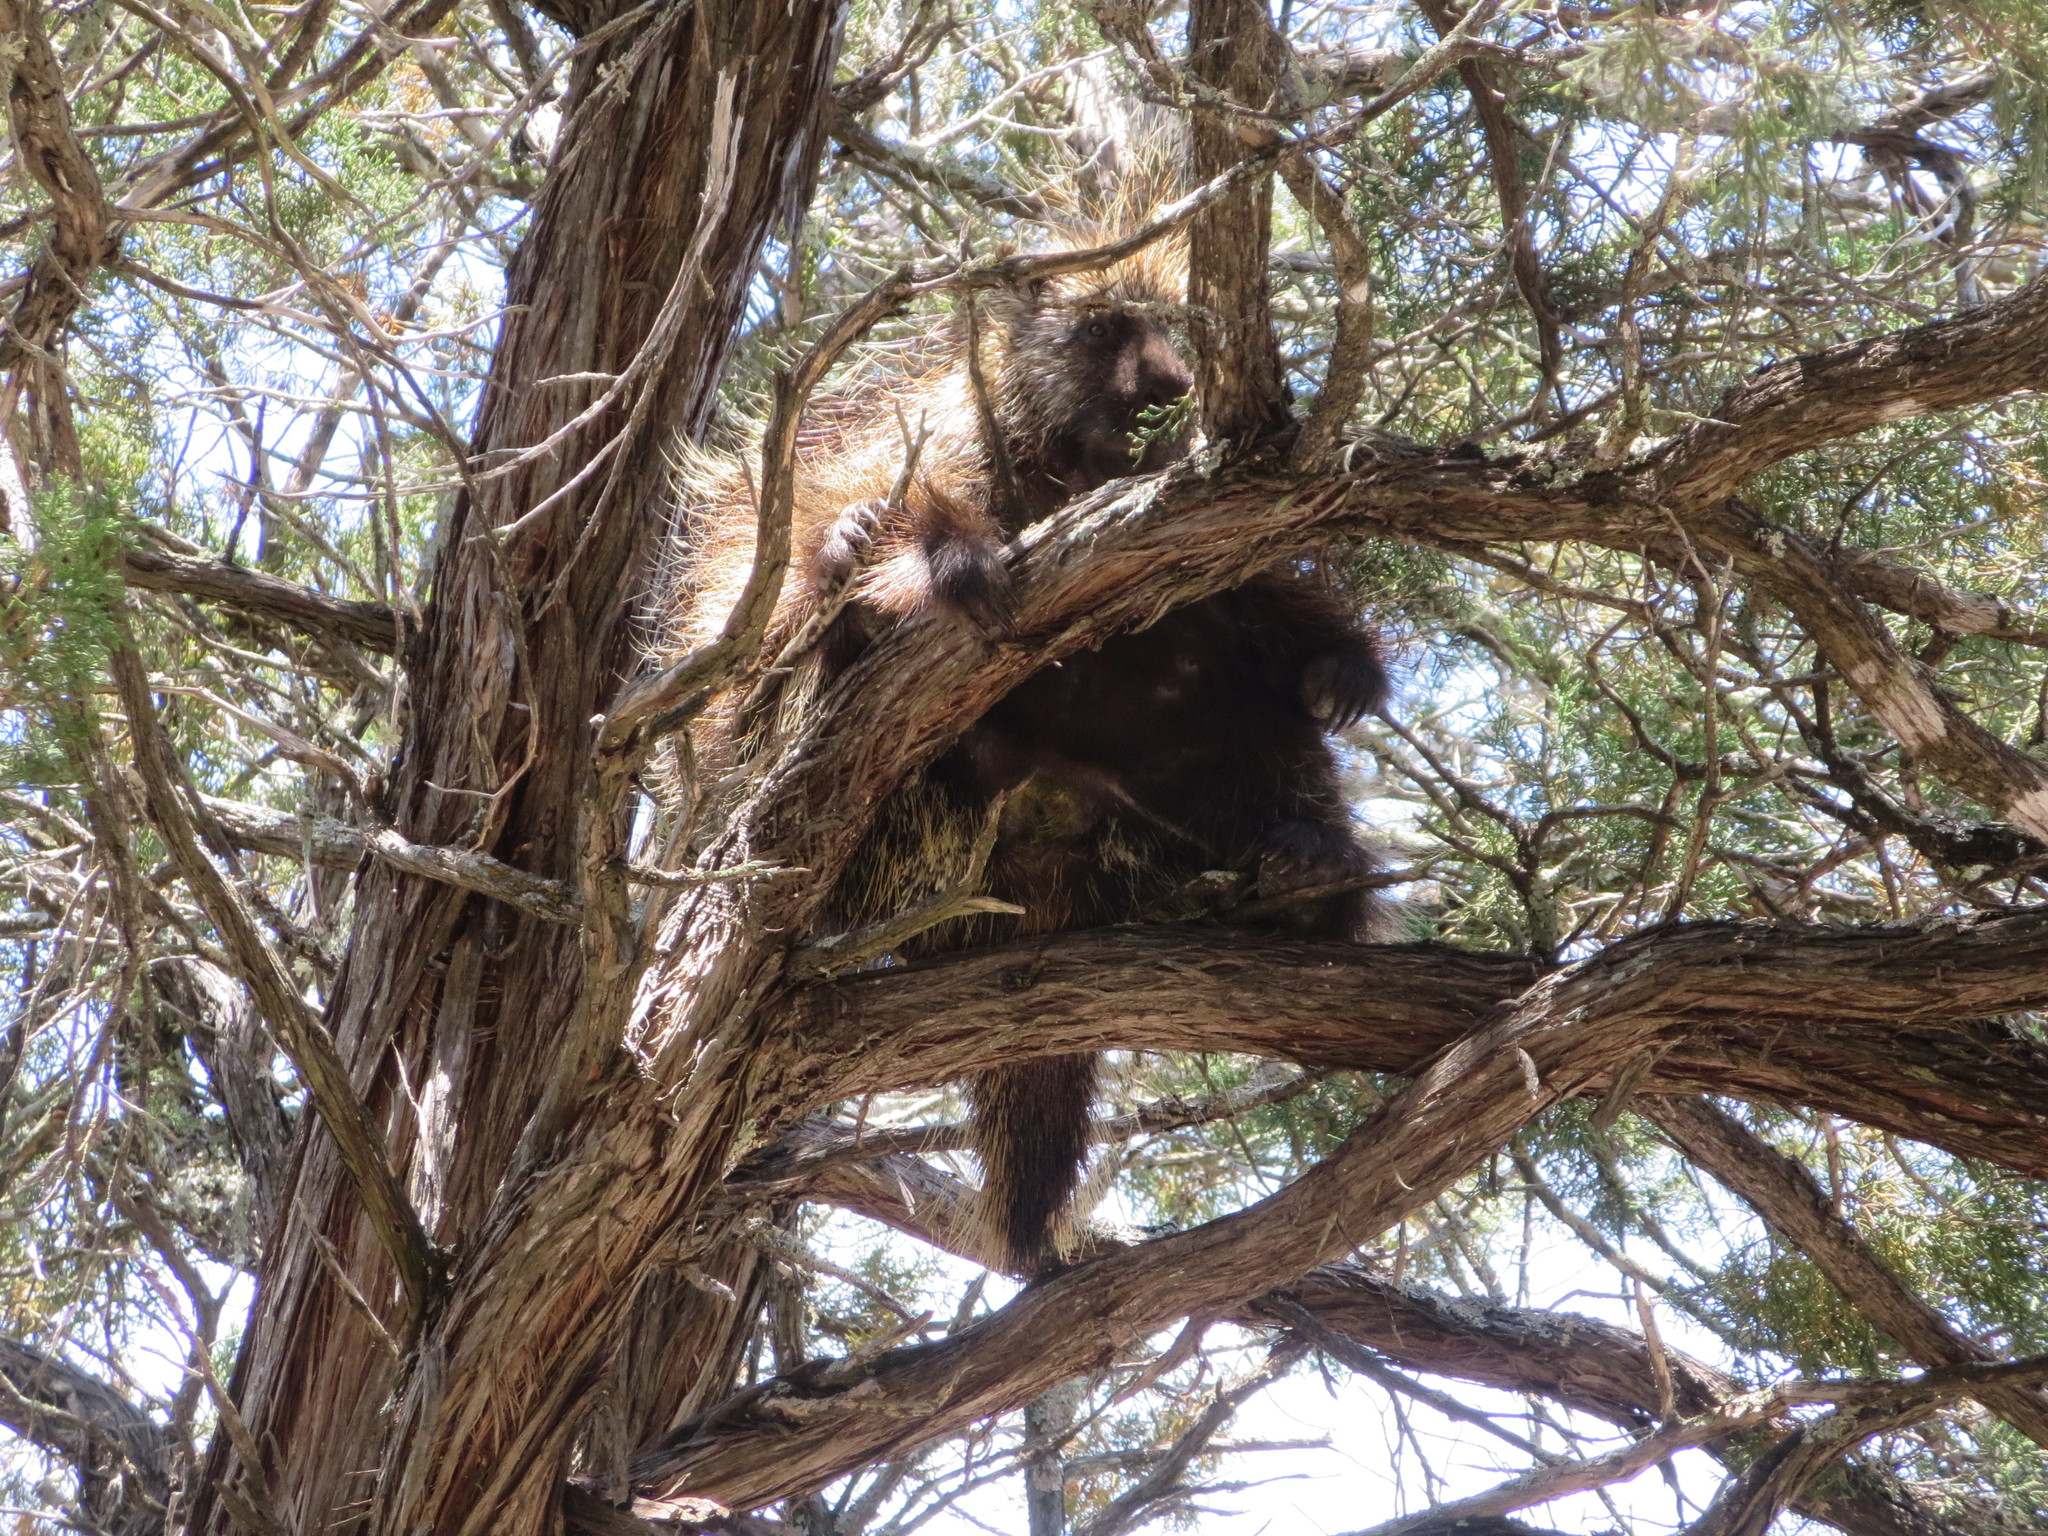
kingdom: Animalia
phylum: Chordata
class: Mammalia
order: Rodentia
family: Erethizontidae
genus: Erethizon
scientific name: Erethizon dorsatus
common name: North american porcupine
